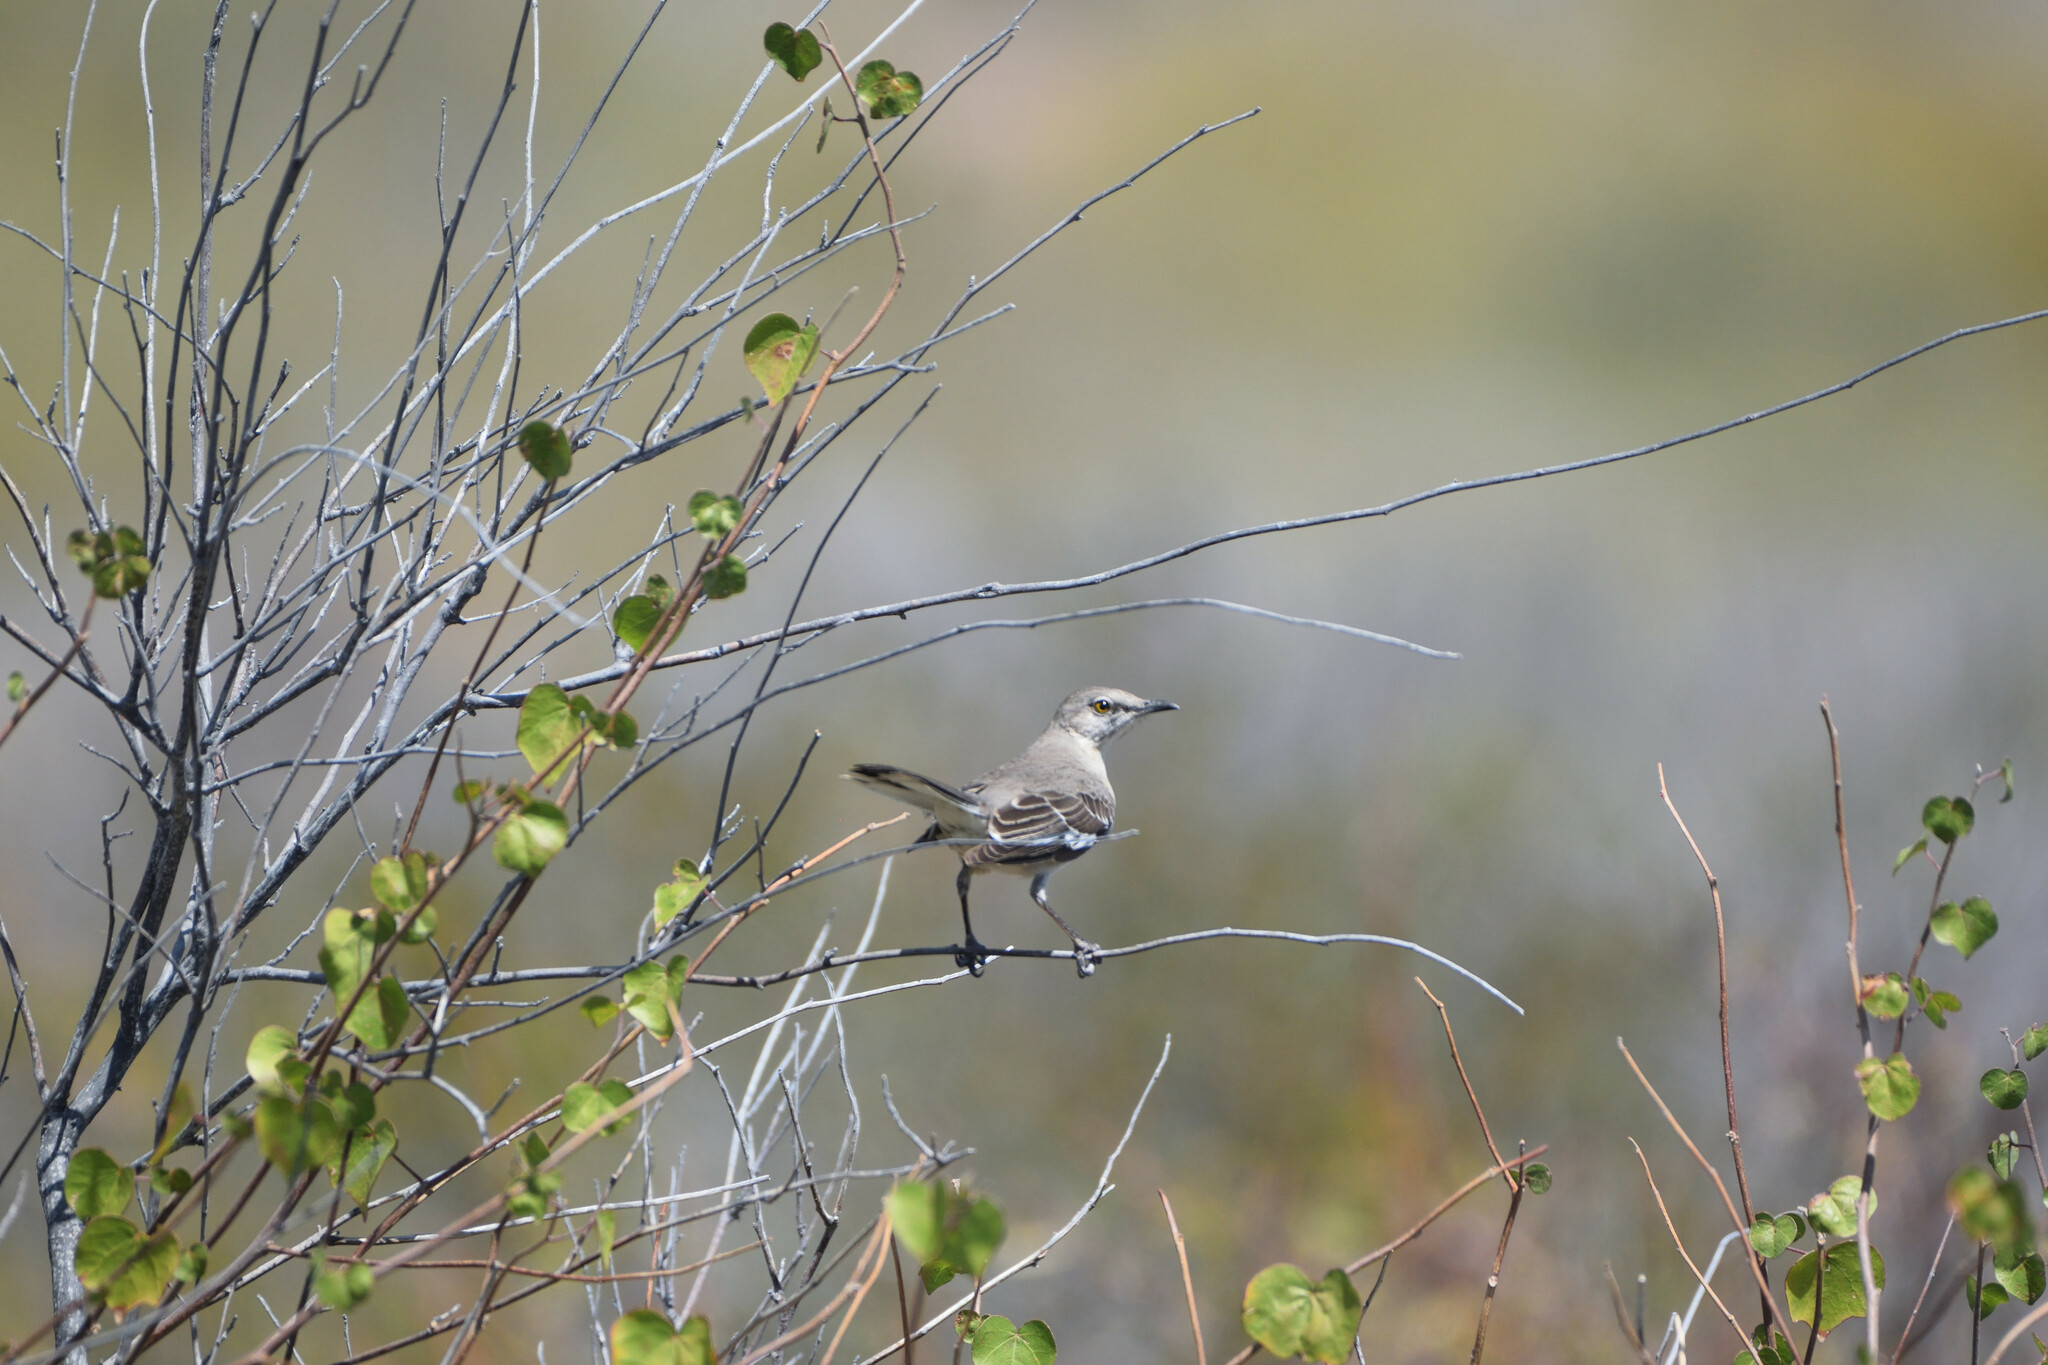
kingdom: Animalia
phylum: Chordata
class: Aves
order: Passeriformes
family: Mimidae
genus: Mimus
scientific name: Mimus polyglottos
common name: Northern mockingbird
